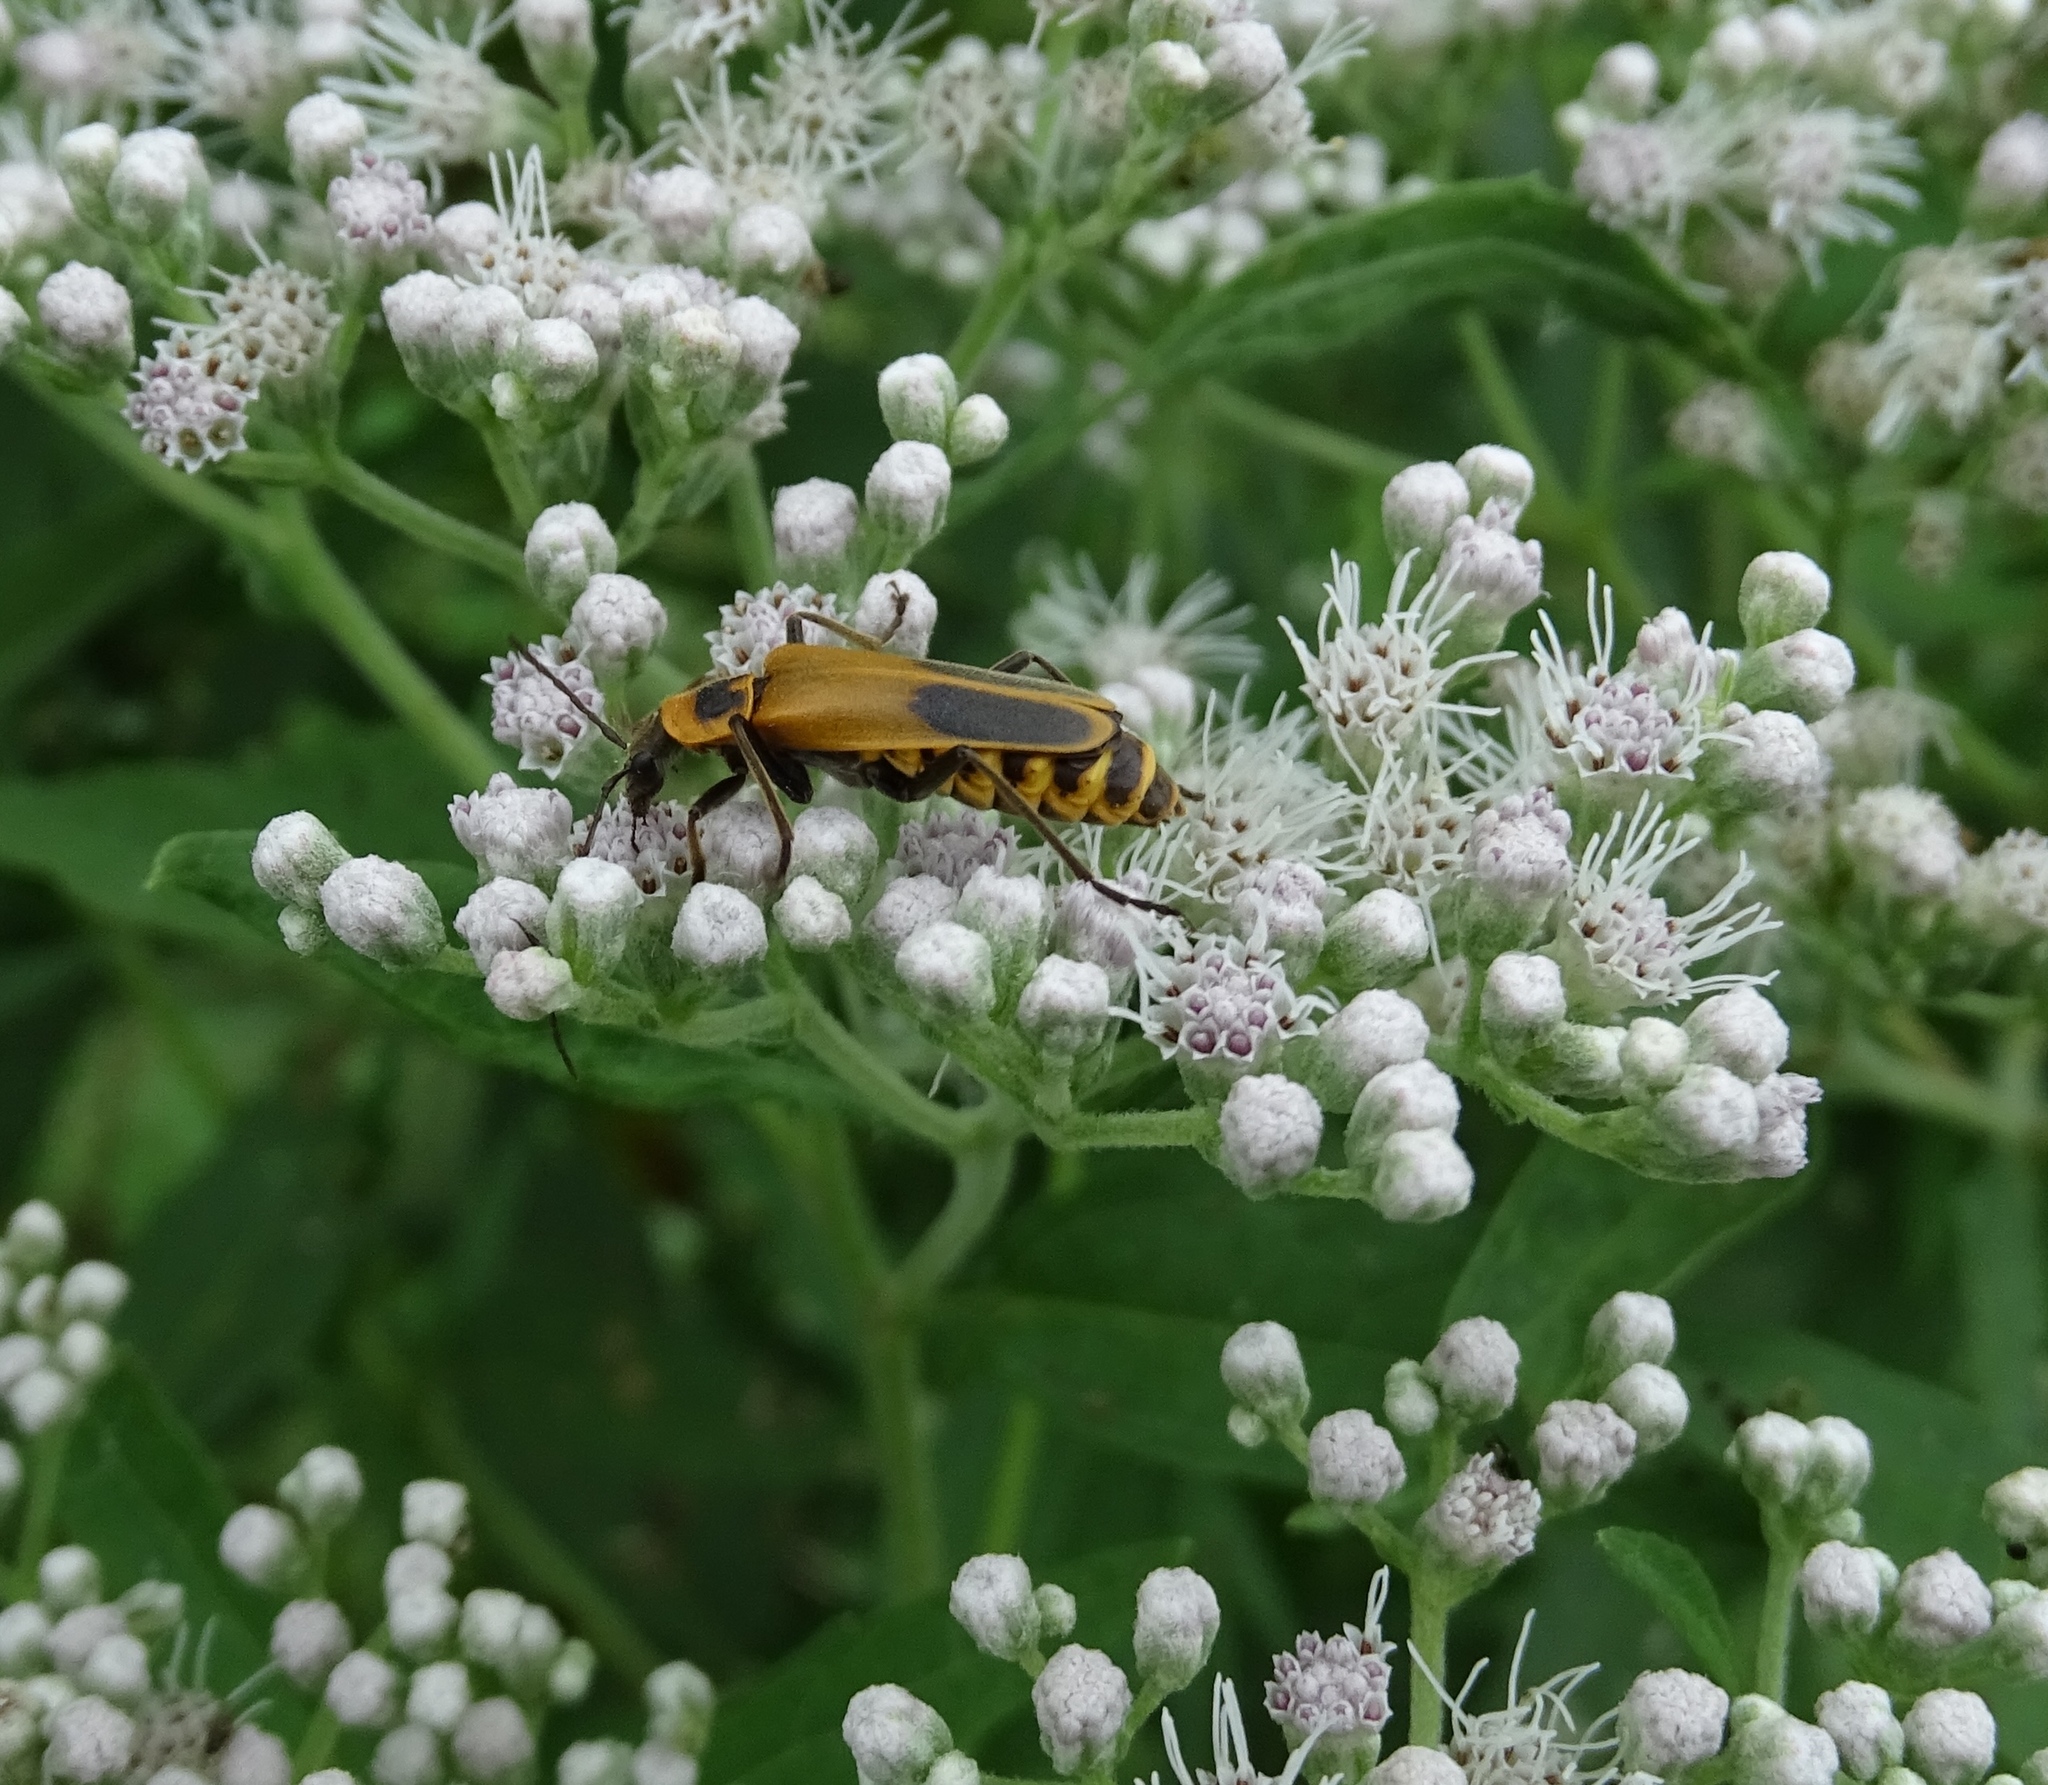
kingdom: Animalia
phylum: Arthropoda
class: Insecta
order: Coleoptera
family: Cantharidae
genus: Chauliognathus
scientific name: Chauliognathus pensylvanicus
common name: Goldenrod soldier beetle
